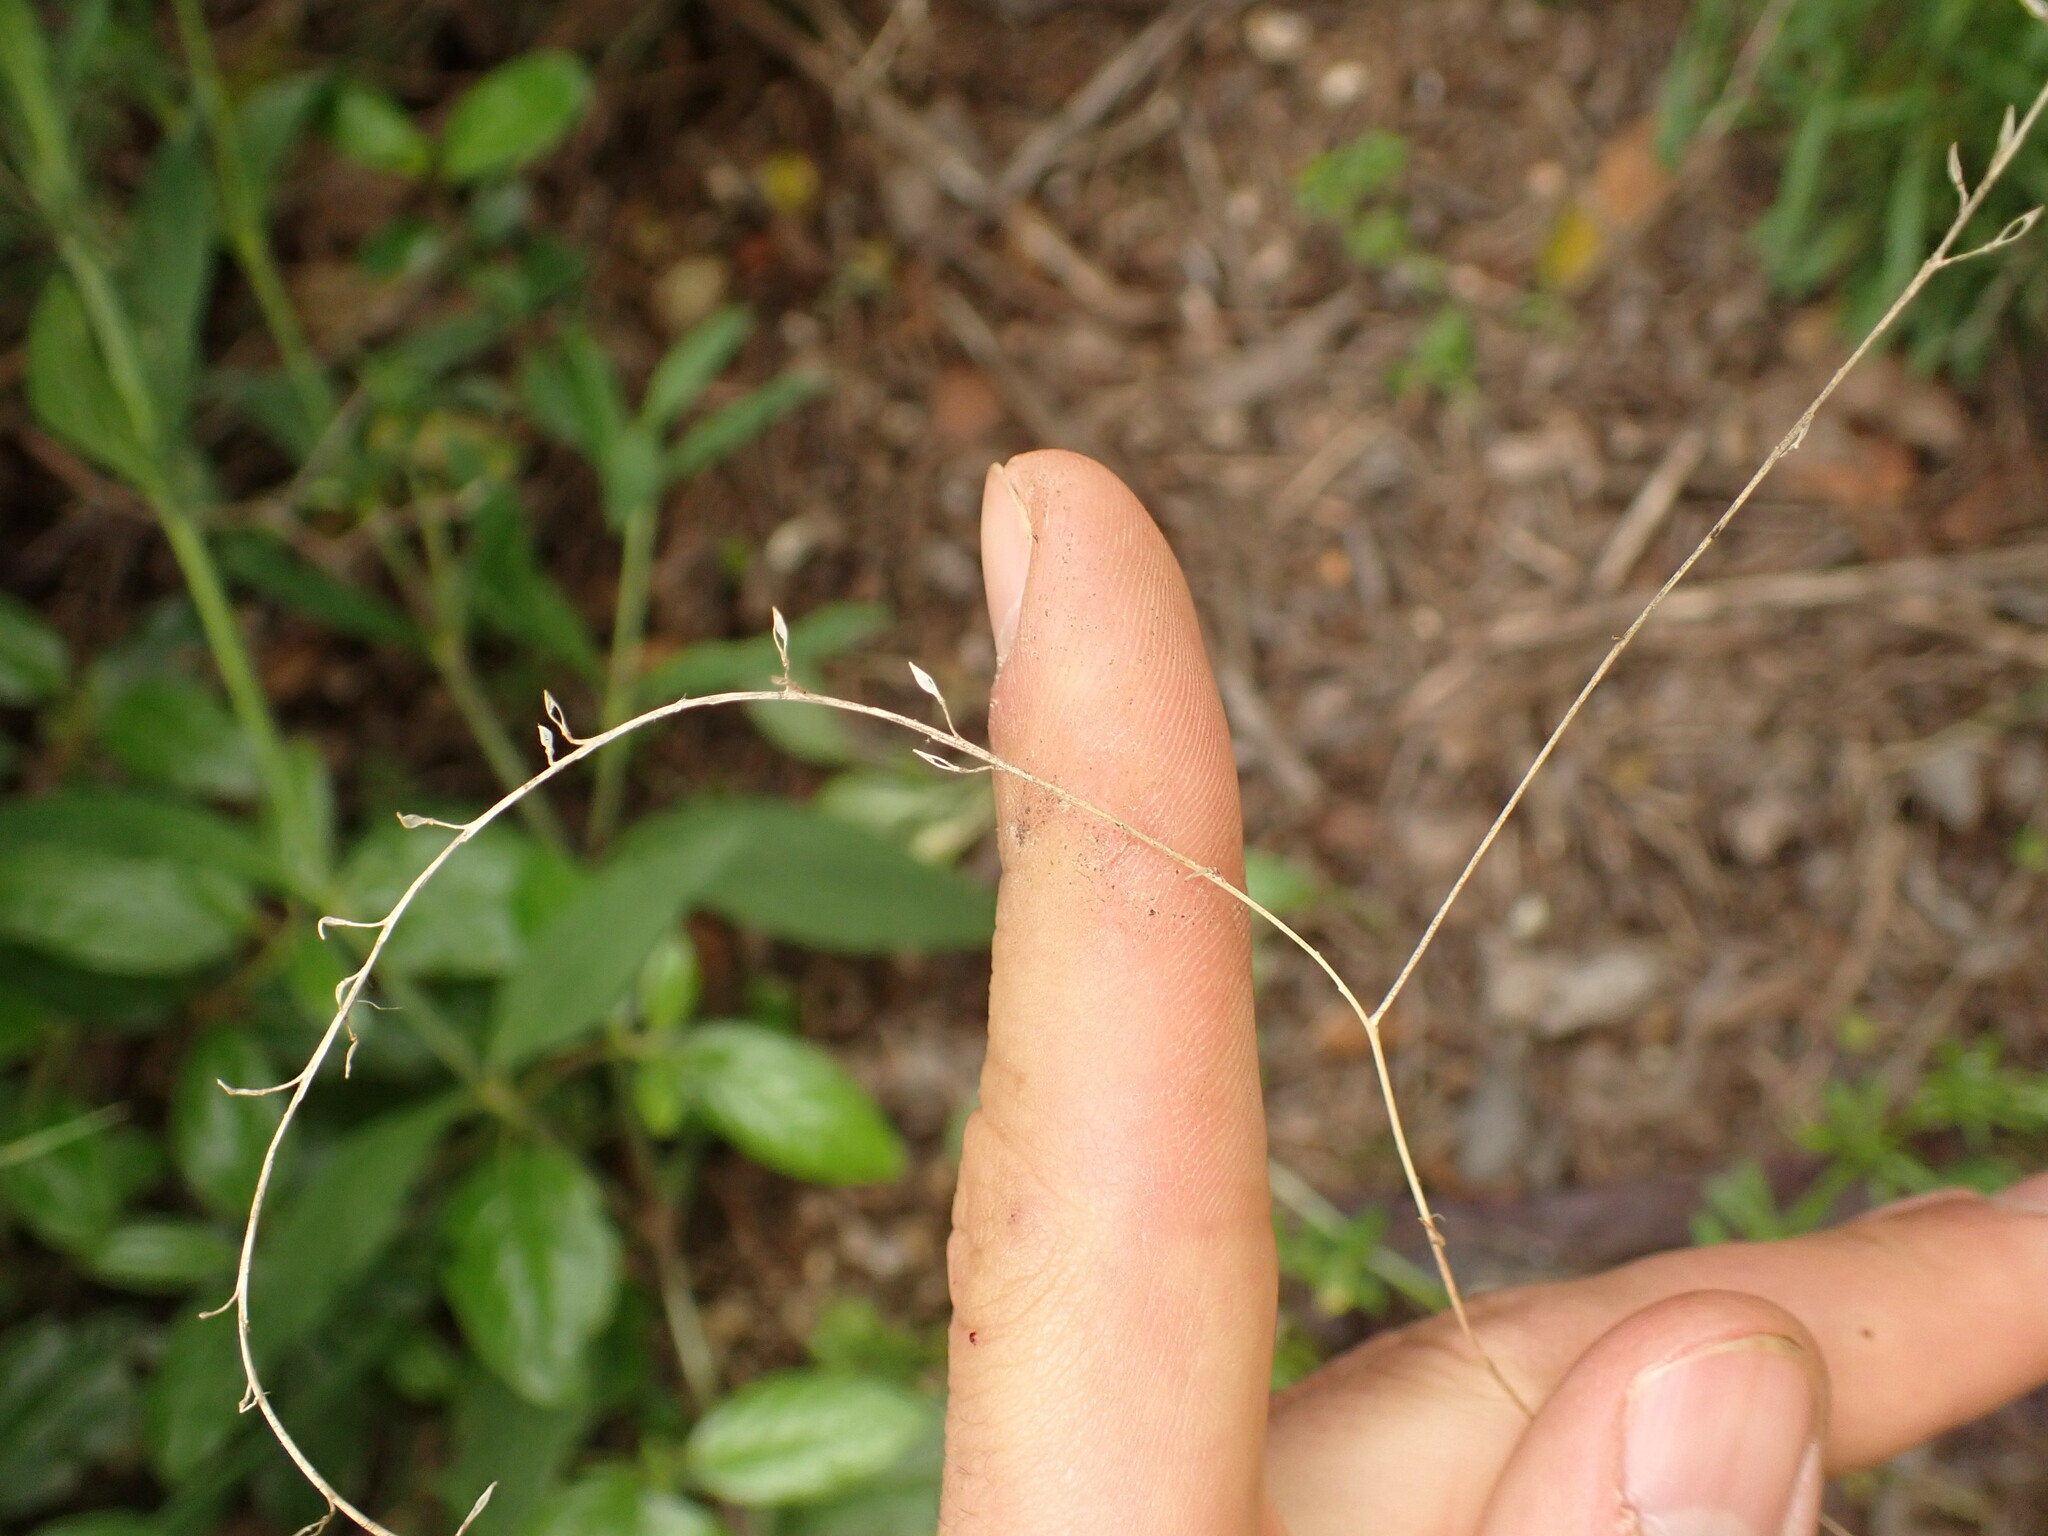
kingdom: Plantae
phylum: Tracheophyta
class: Magnoliopsida
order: Brassicales
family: Brassicaceae
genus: Lepidium
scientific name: Lepidium graminifolium
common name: Tall pepperwort
